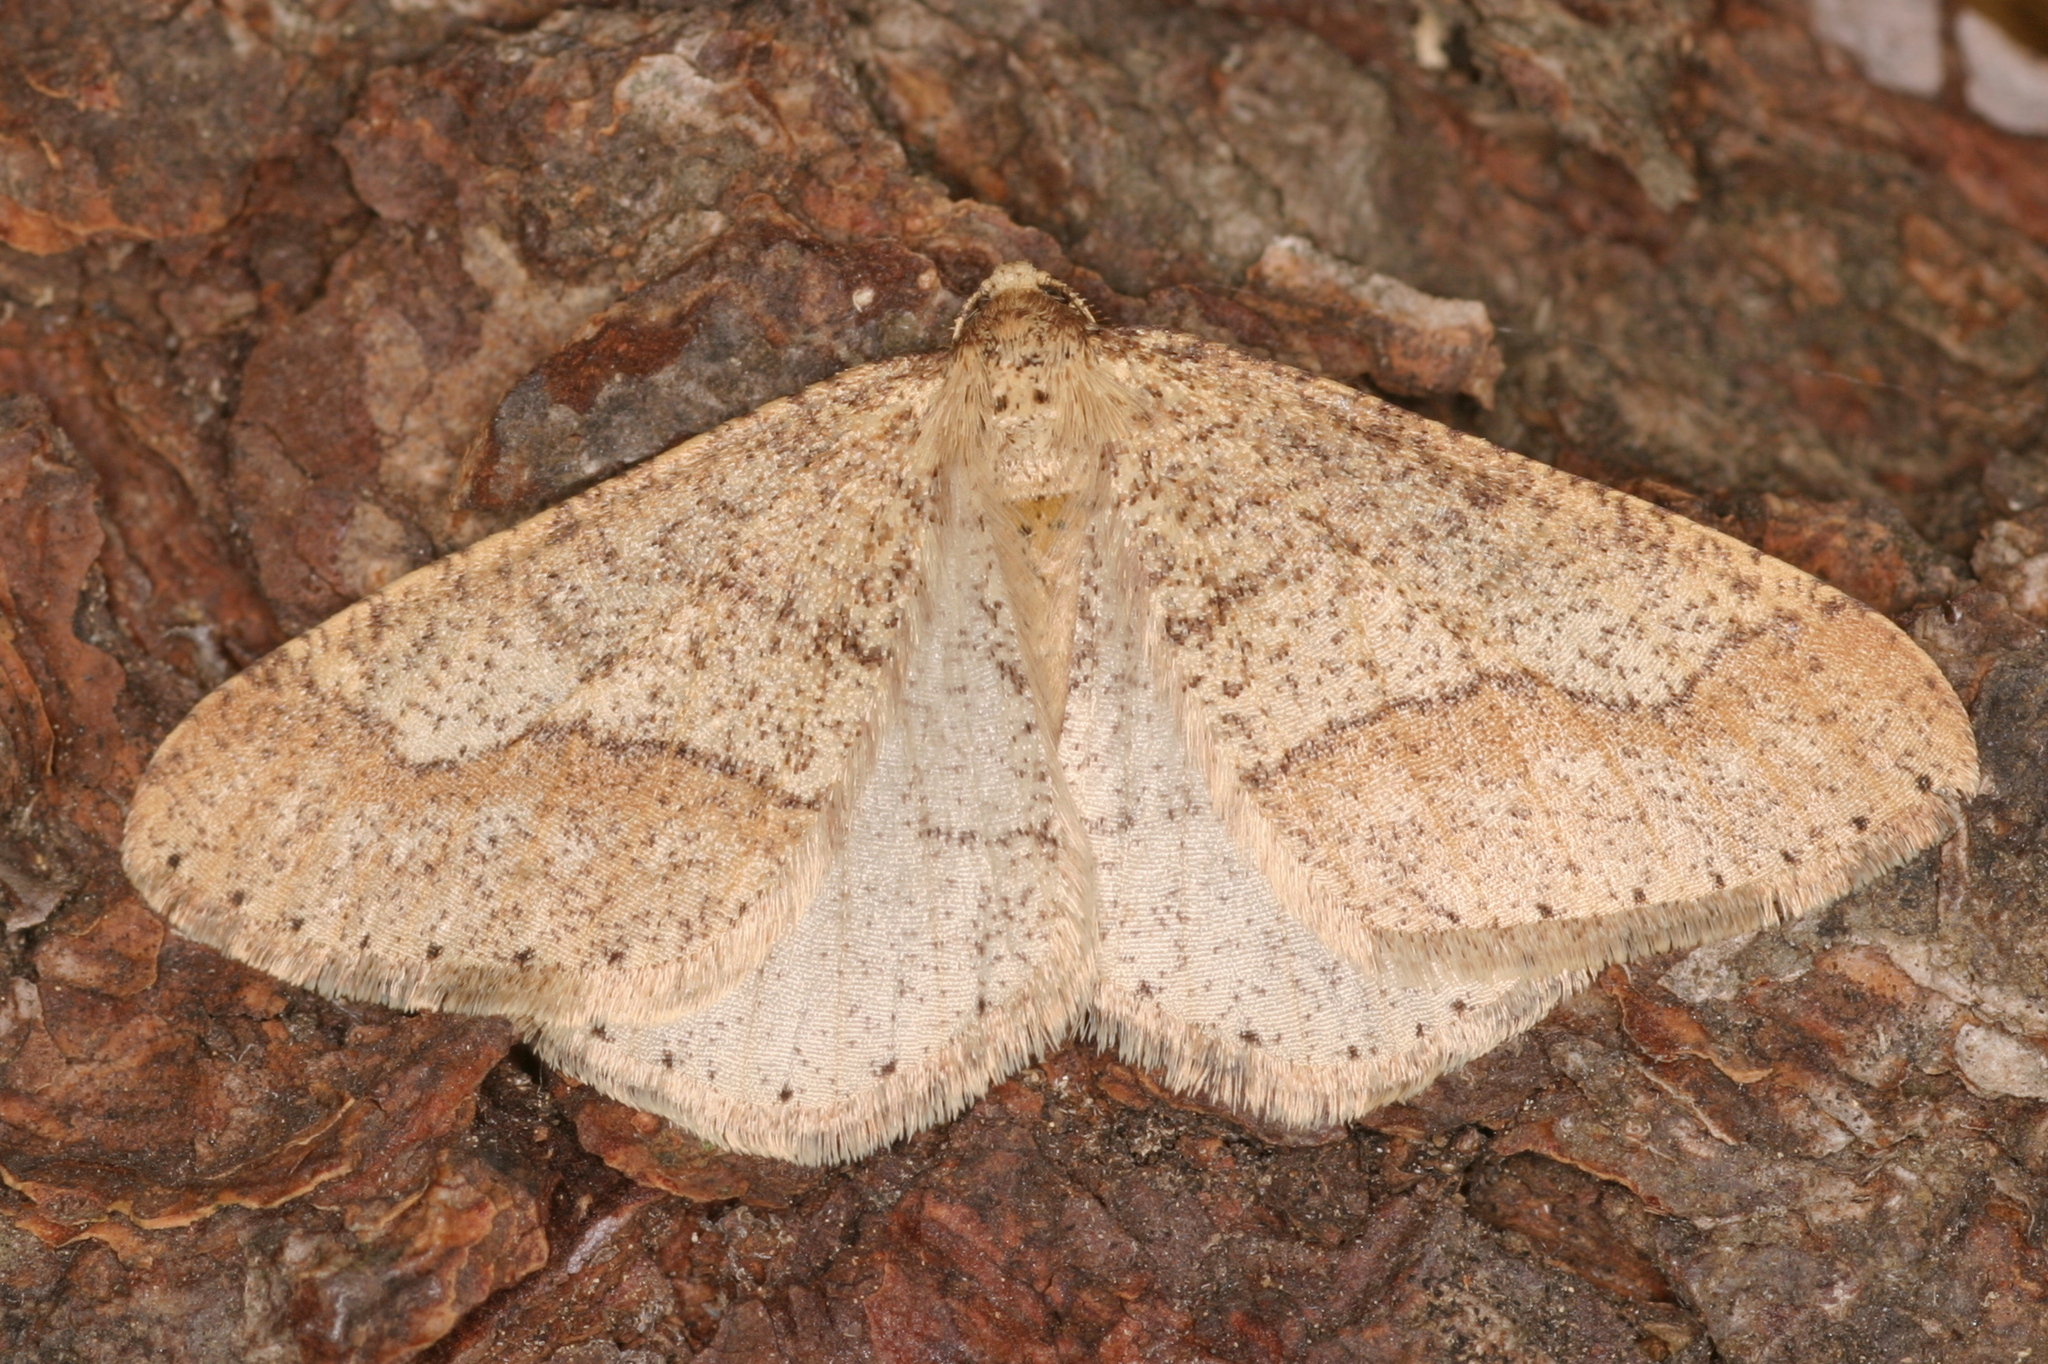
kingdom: Animalia
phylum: Arthropoda
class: Insecta
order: Lepidoptera
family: Geometridae
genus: Agriopis
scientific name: Agriopis marginaria
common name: Dotted border
